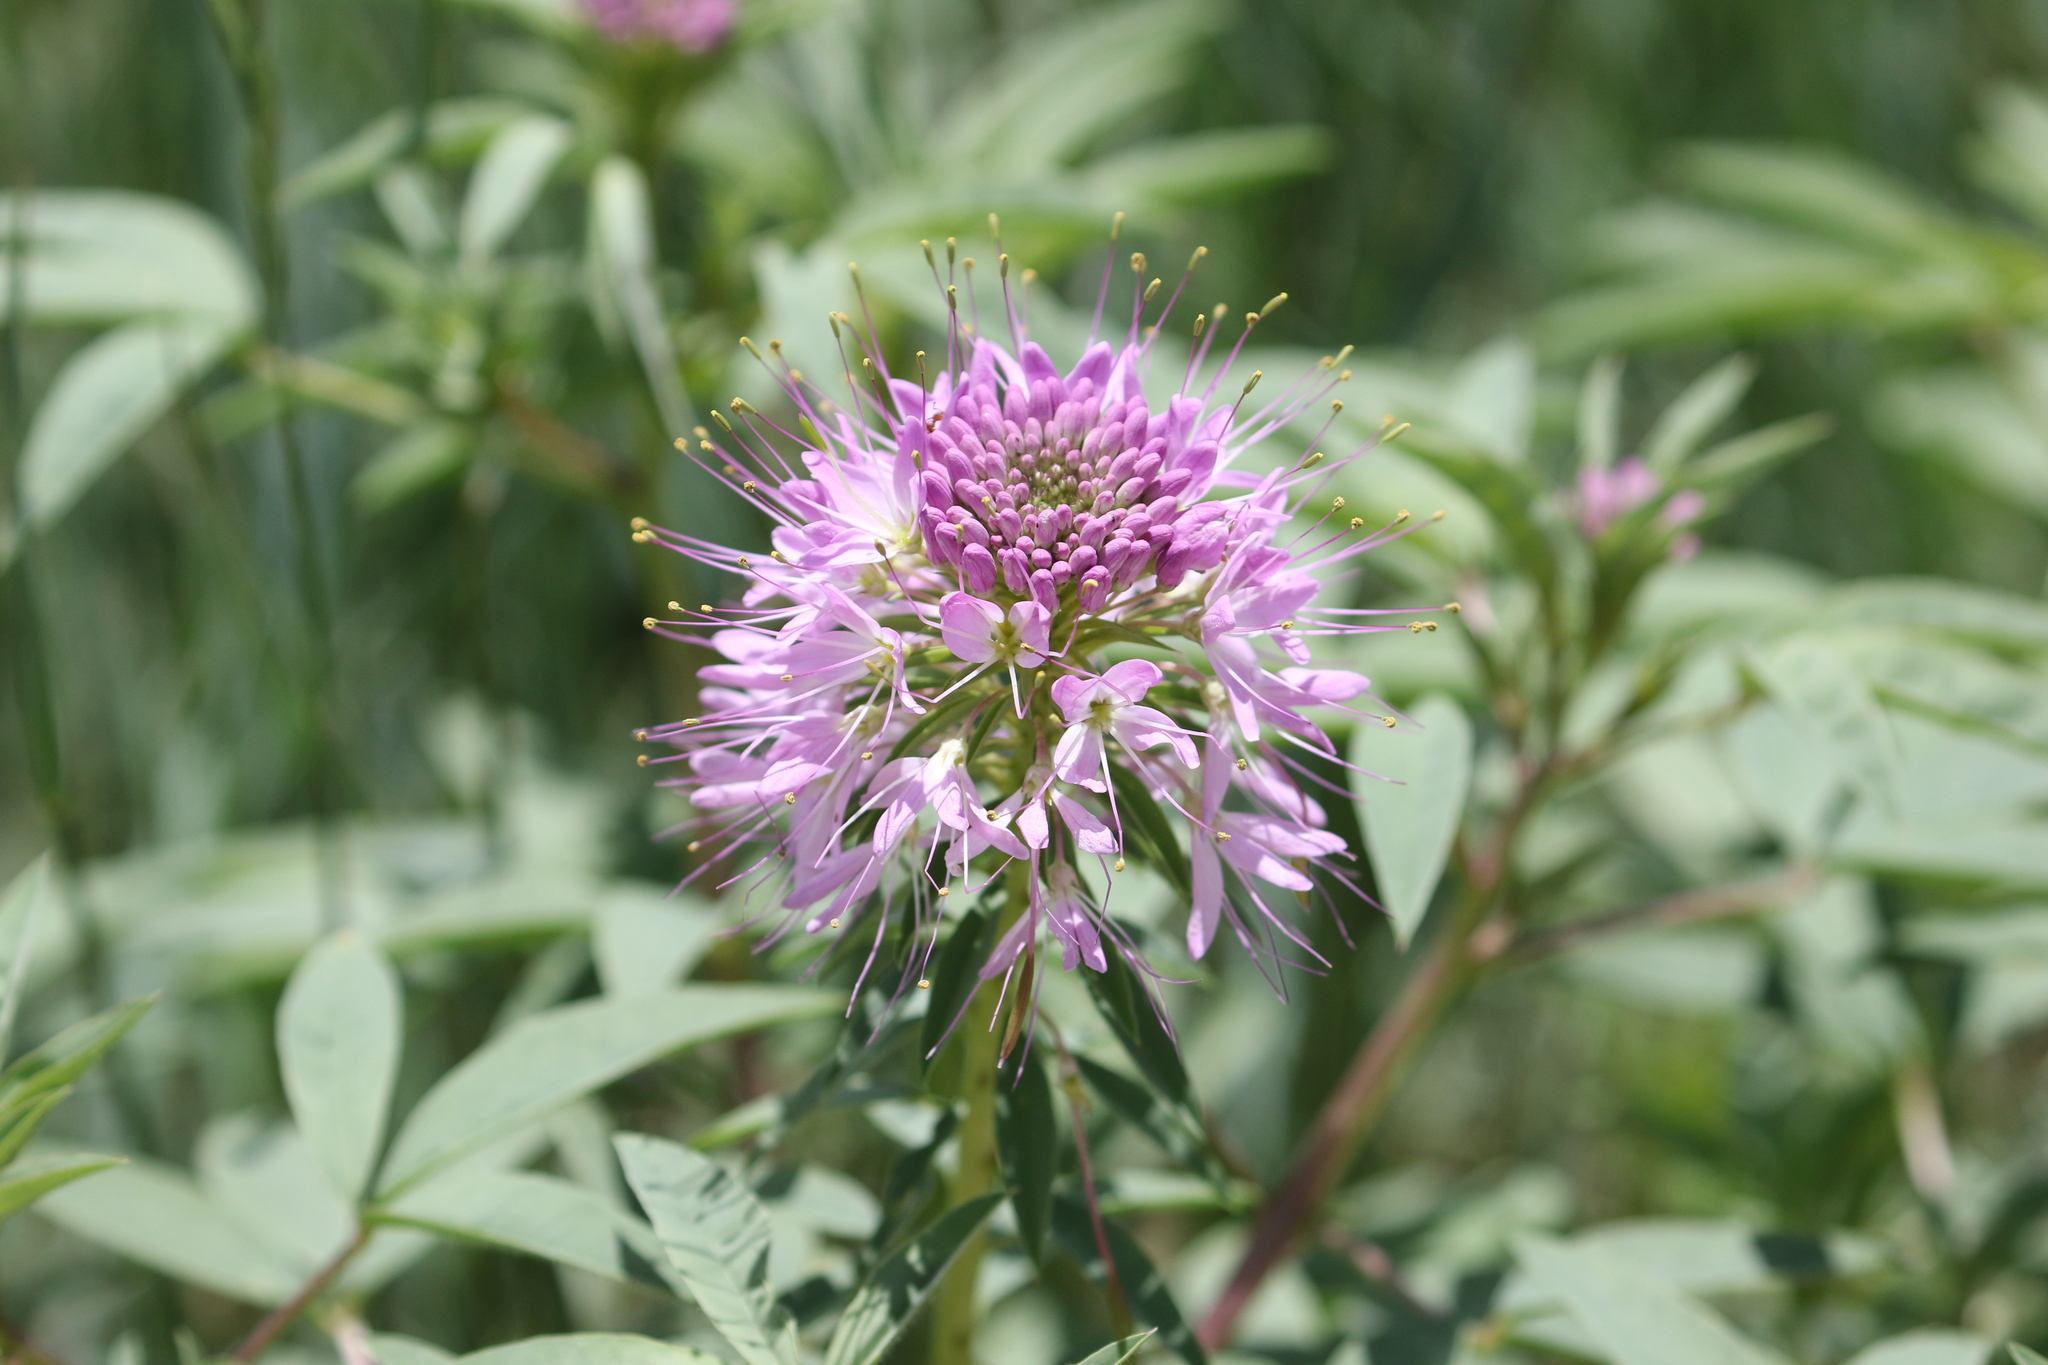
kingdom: Plantae
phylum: Tracheophyta
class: Magnoliopsida
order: Brassicales
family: Cleomaceae
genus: Cleomella
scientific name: Cleomella serrulata
